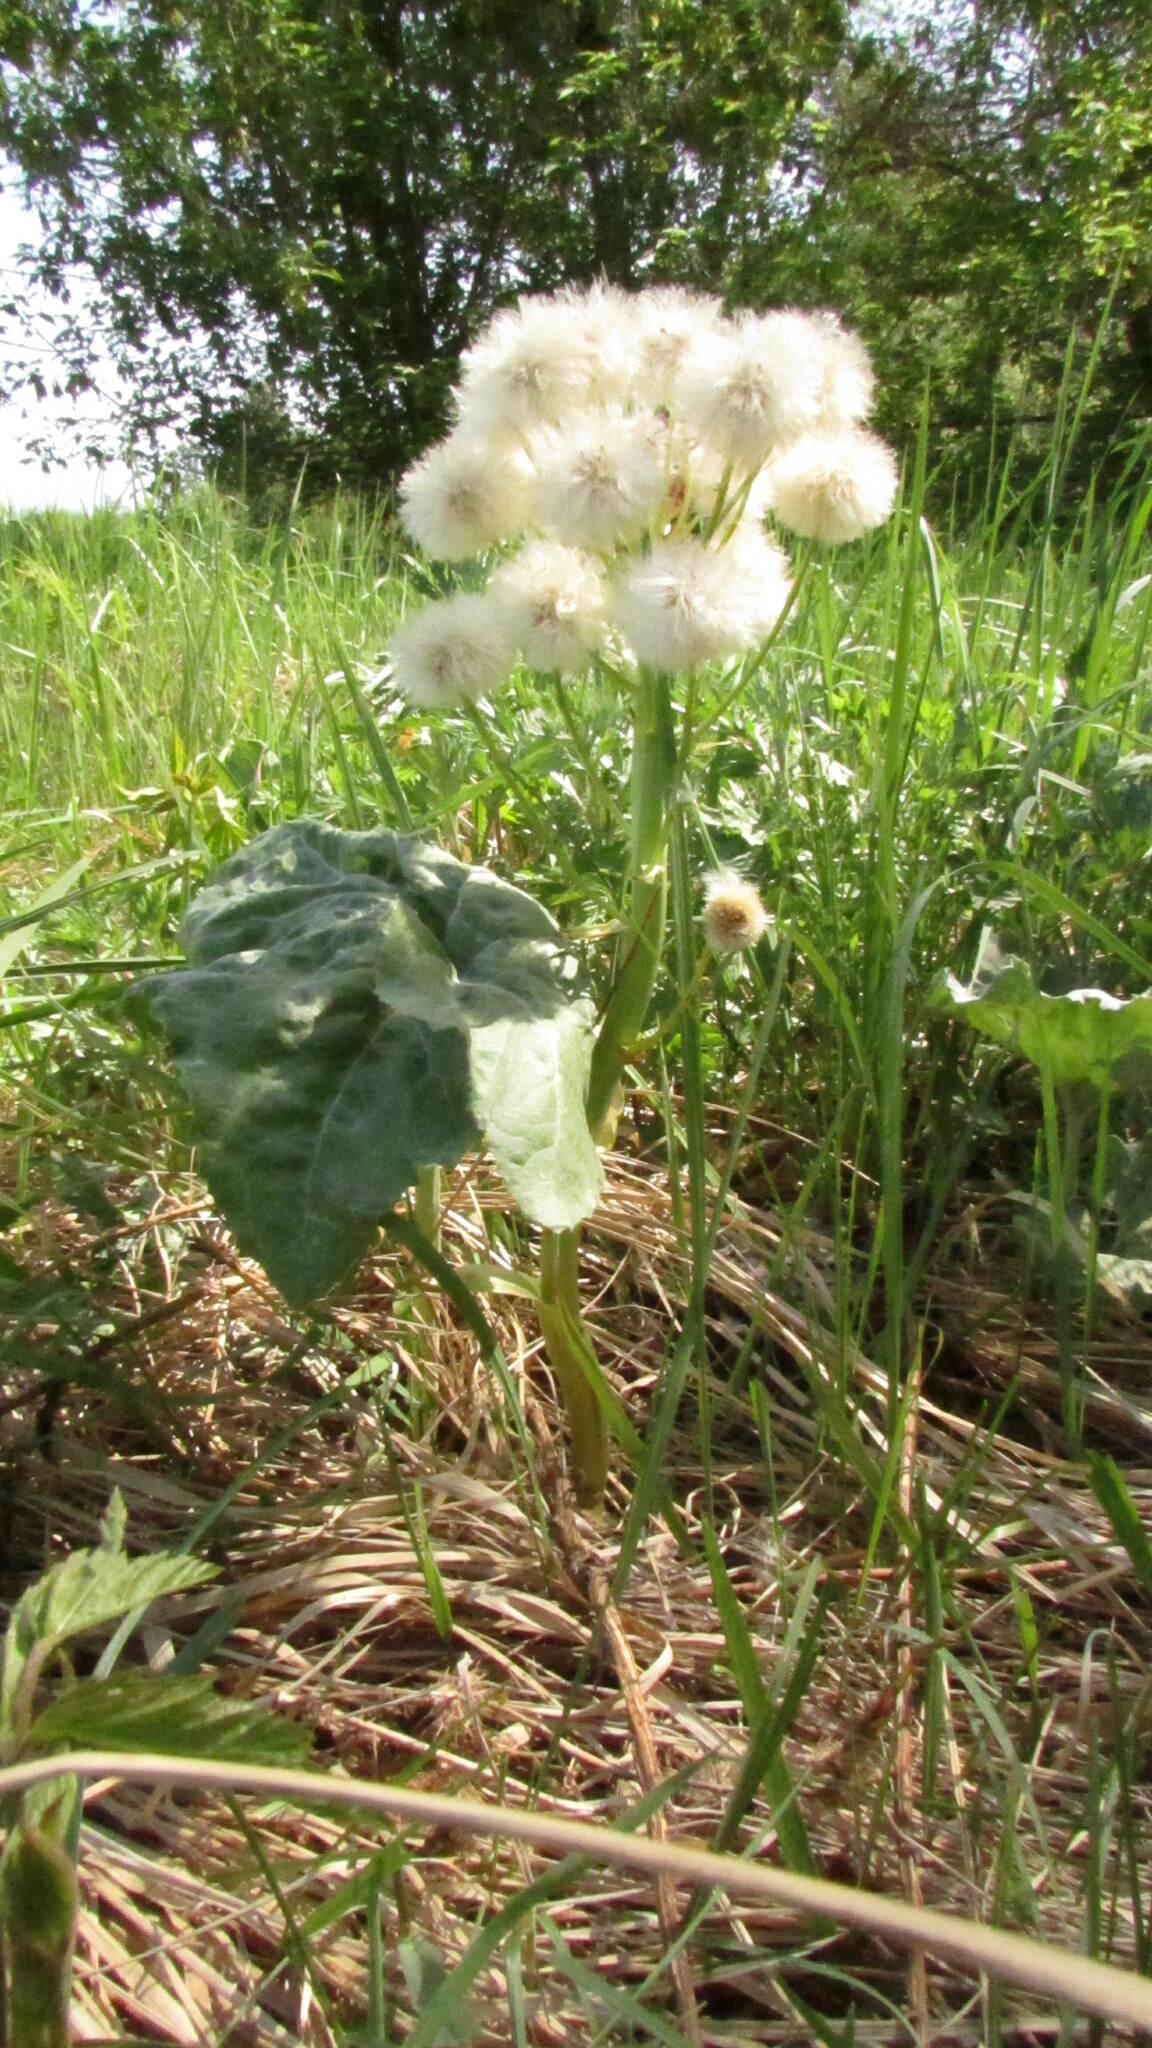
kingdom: Plantae
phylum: Tracheophyta
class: Magnoliopsida
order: Asterales
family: Asteraceae
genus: Petasites
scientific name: Petasites spurius
